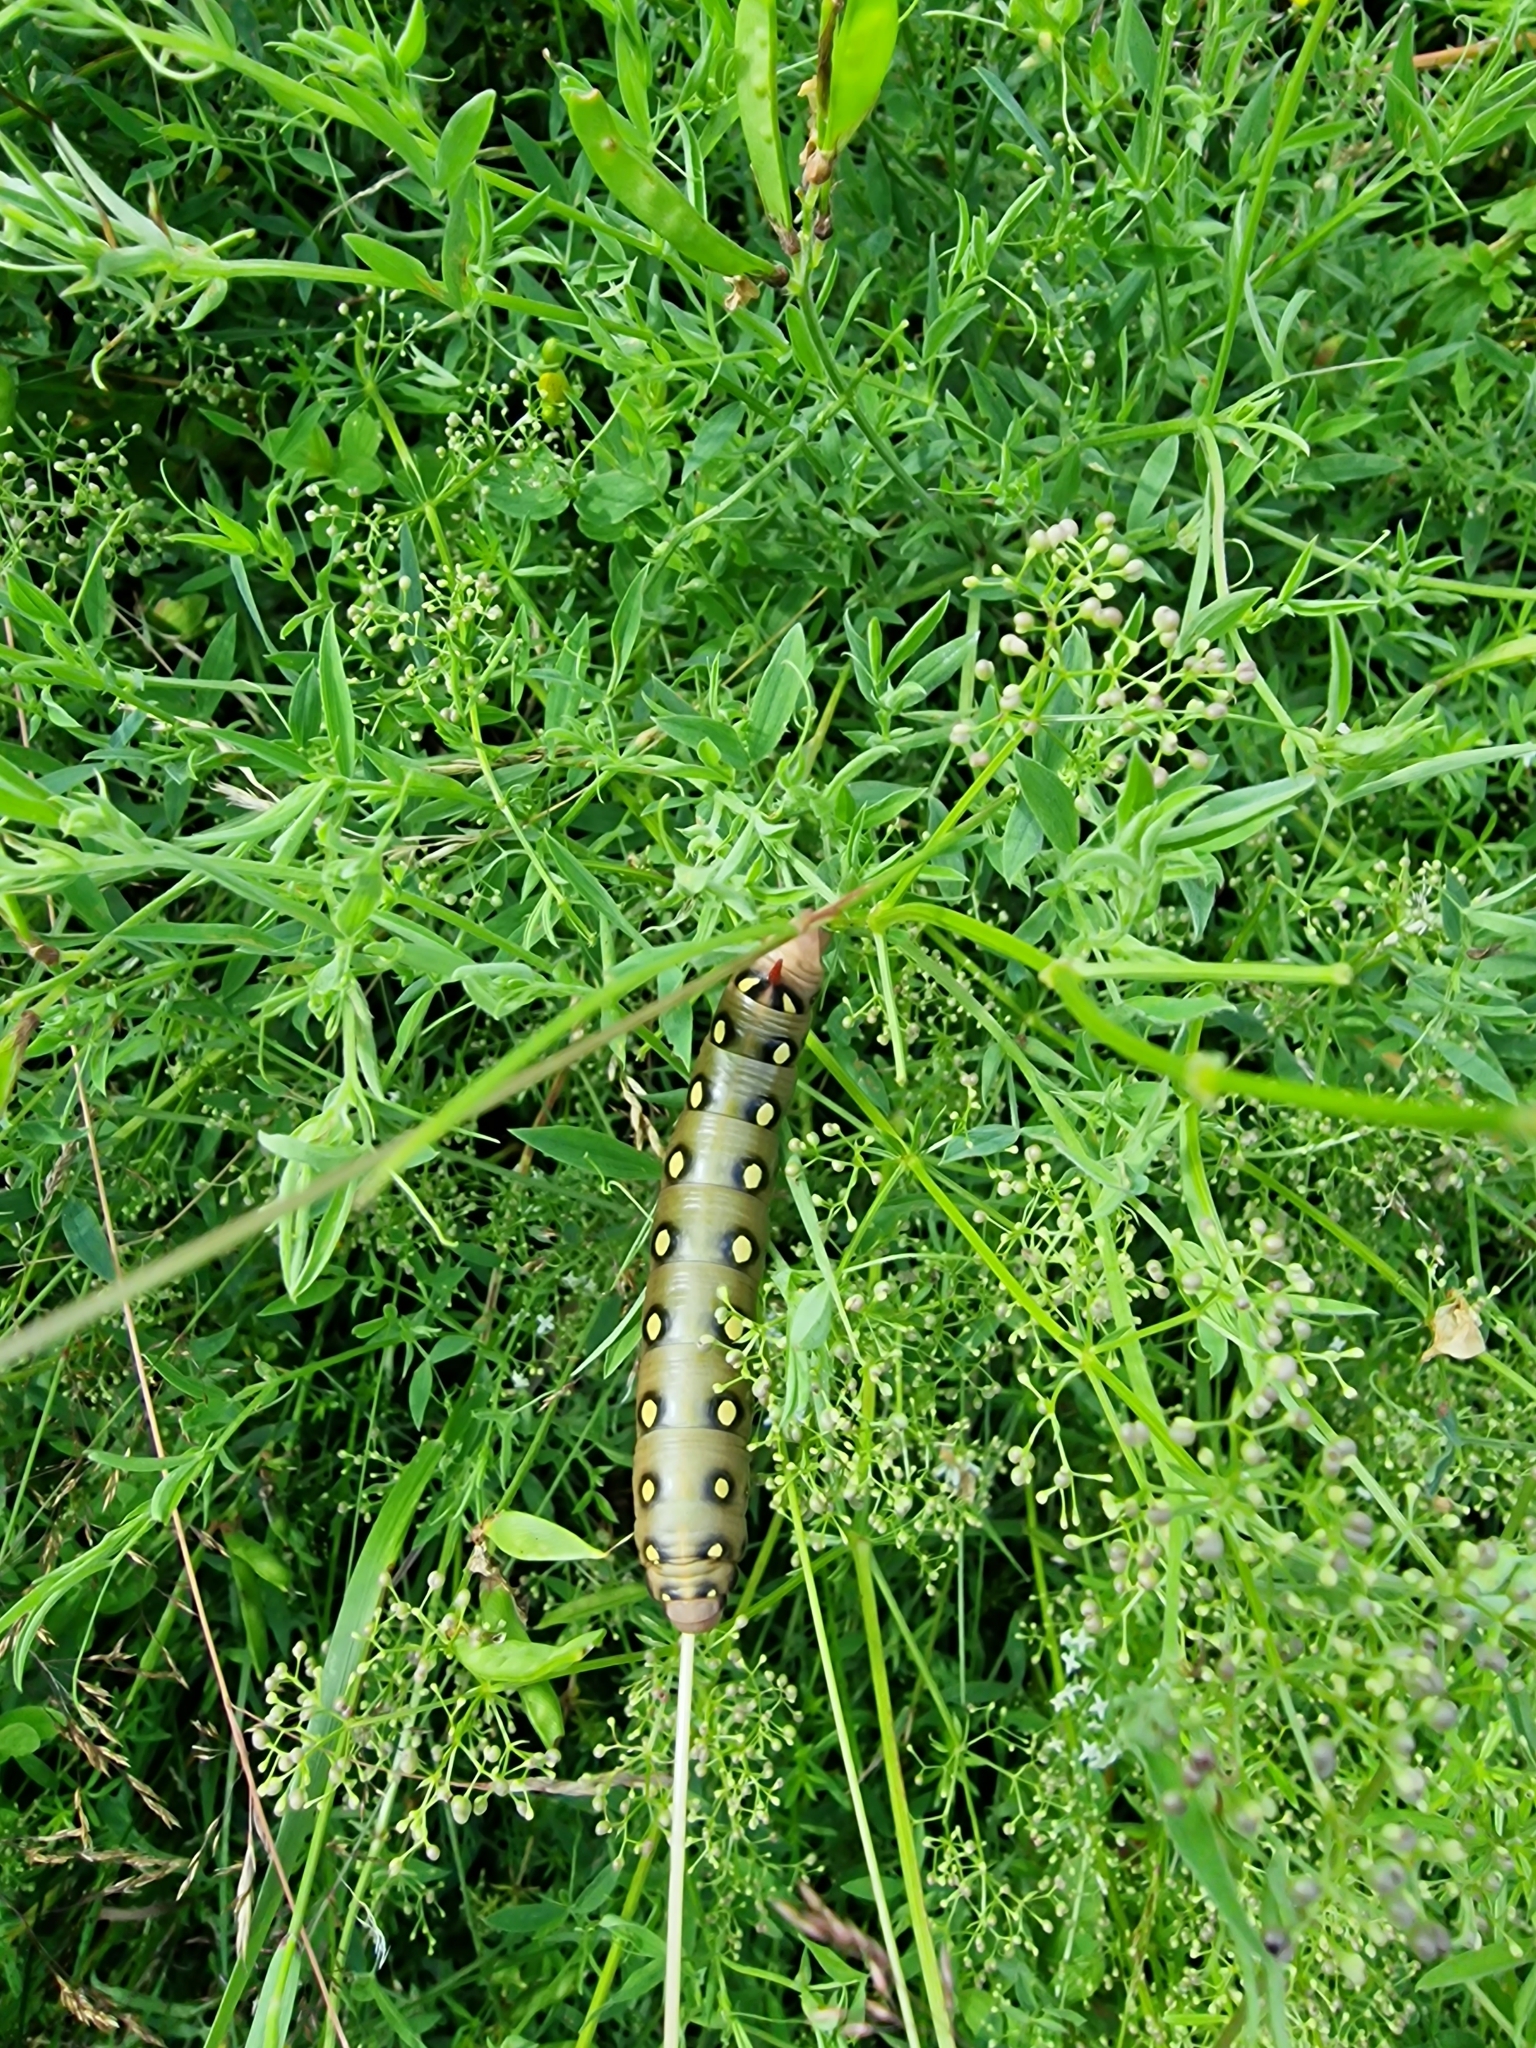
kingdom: Animalia
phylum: Arthropoda
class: Insecta
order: Lepidoptera
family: Sphingidae
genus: Hyles
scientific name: Hyles gallii
